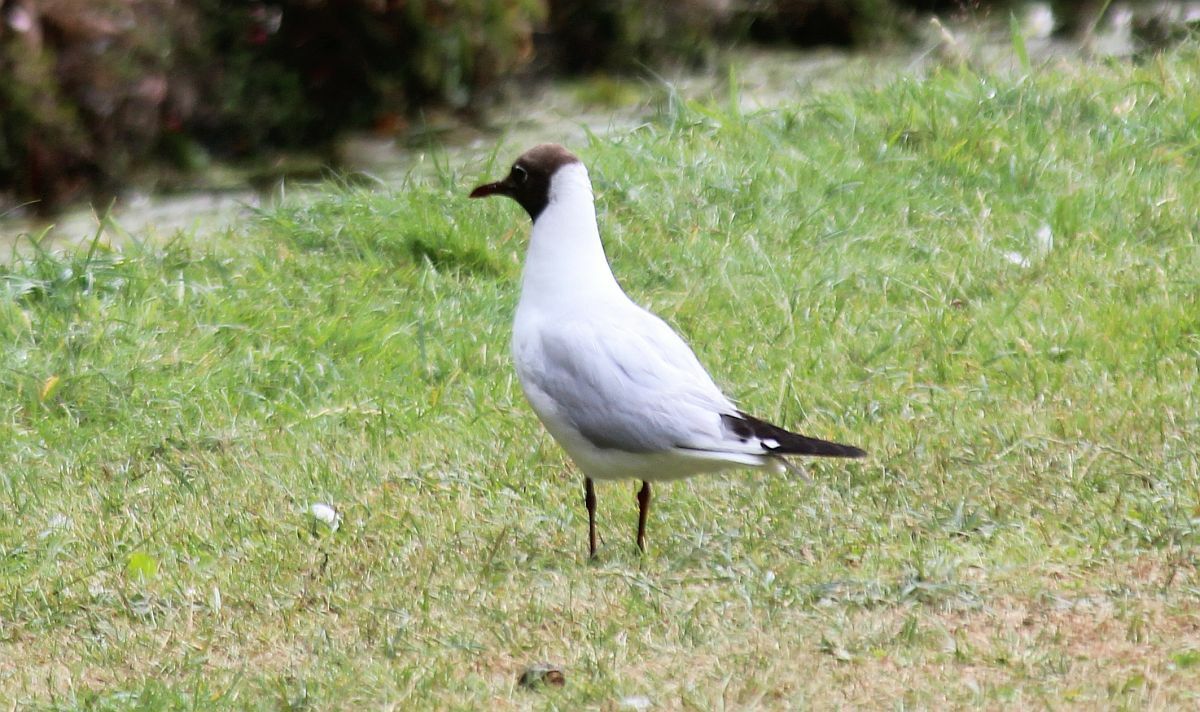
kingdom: Animalia
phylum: Chordata
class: Aves
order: Charadriiformes
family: Laridae
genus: Chroicocephalus
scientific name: Chroicocephalus ridibundus
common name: Black-headed gull
